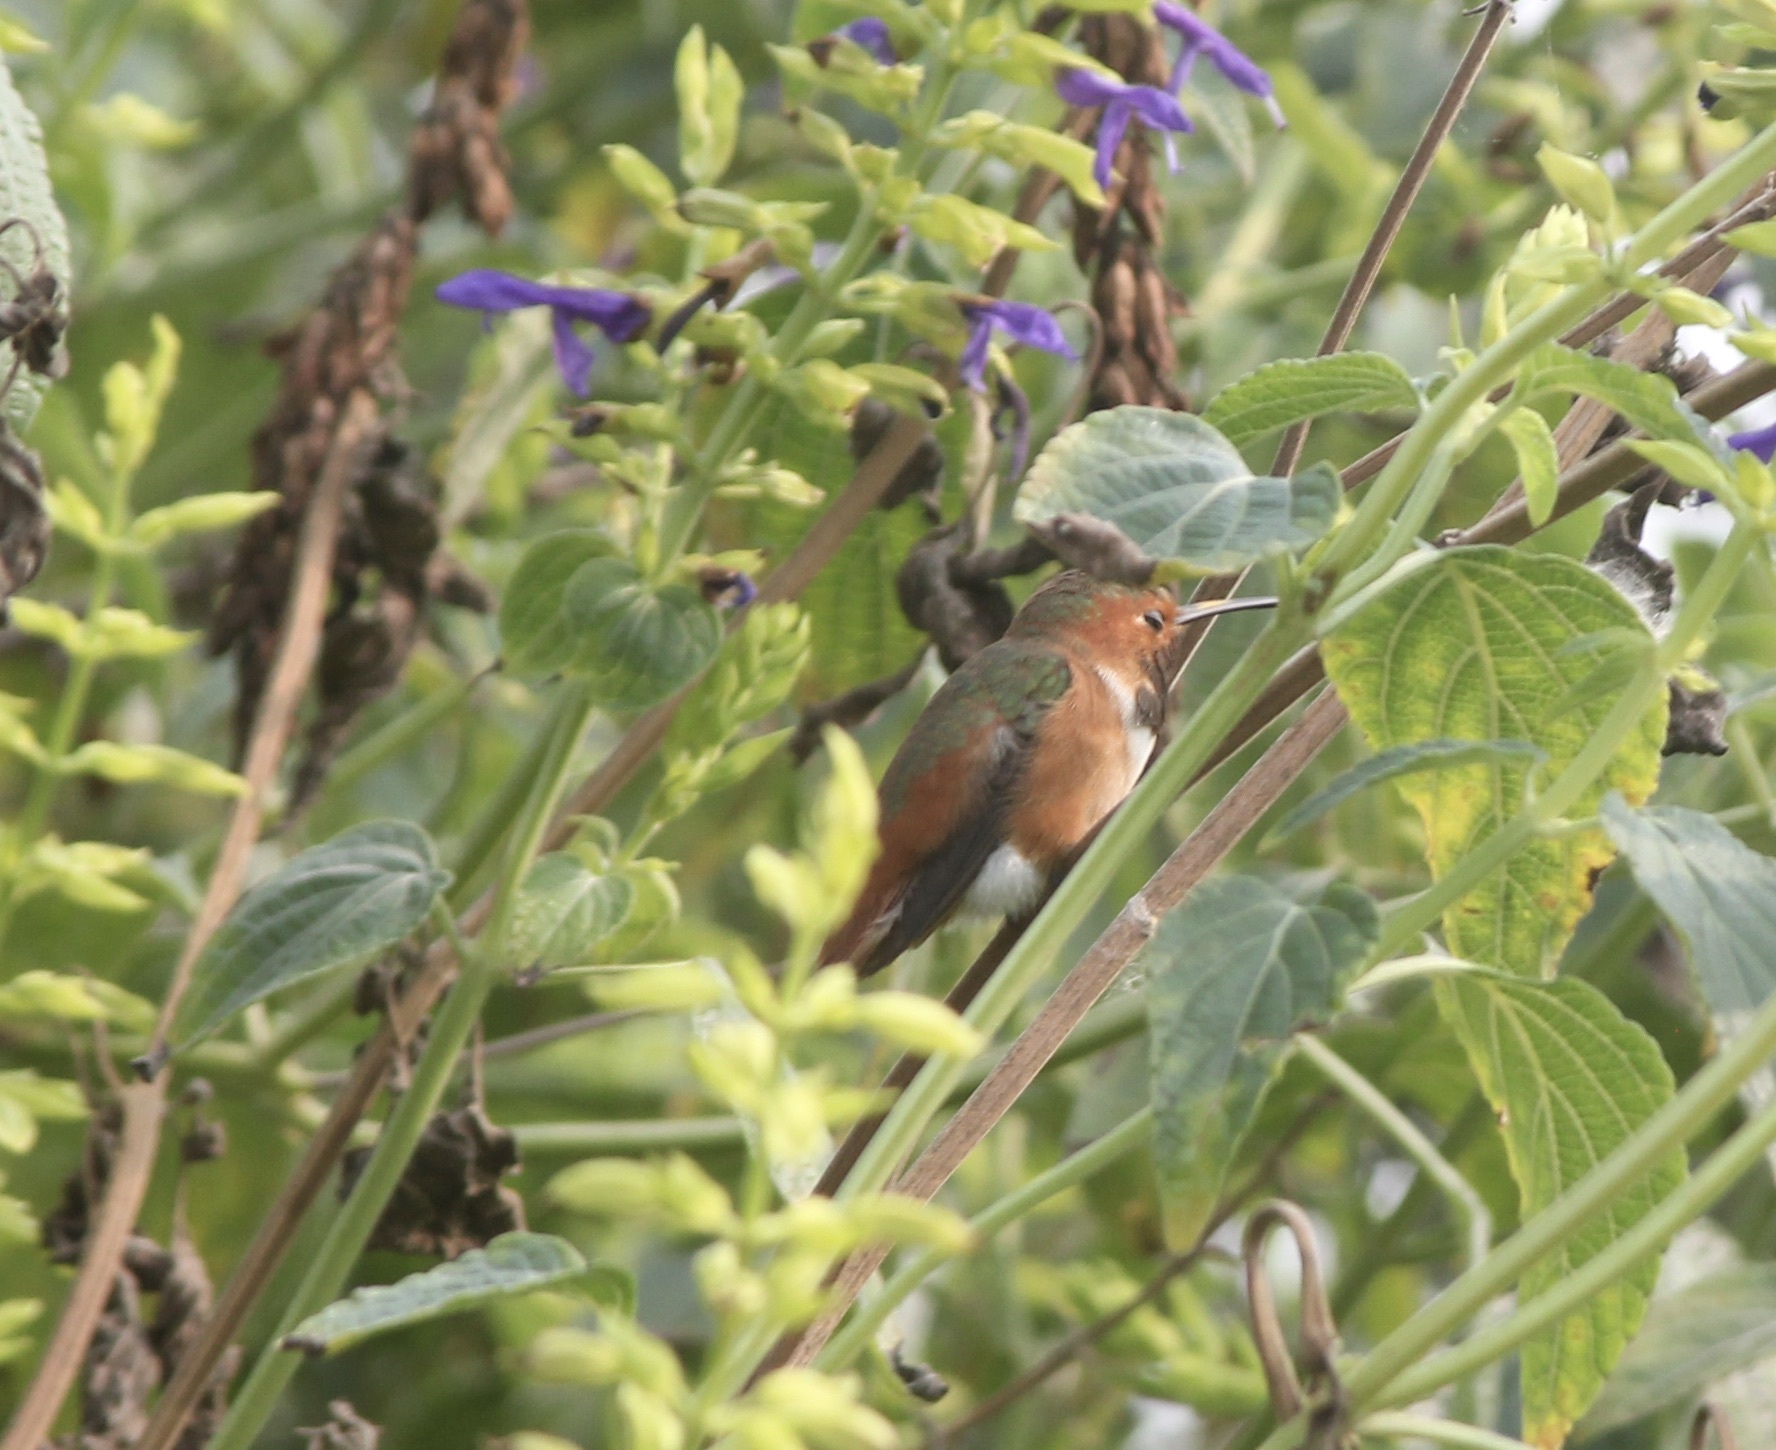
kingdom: Animalia
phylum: Chordata
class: Aves
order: Apodiformes
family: Trochilidae
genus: Selasphorus
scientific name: Selasphorus sasin
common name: Allen's hummingbird
